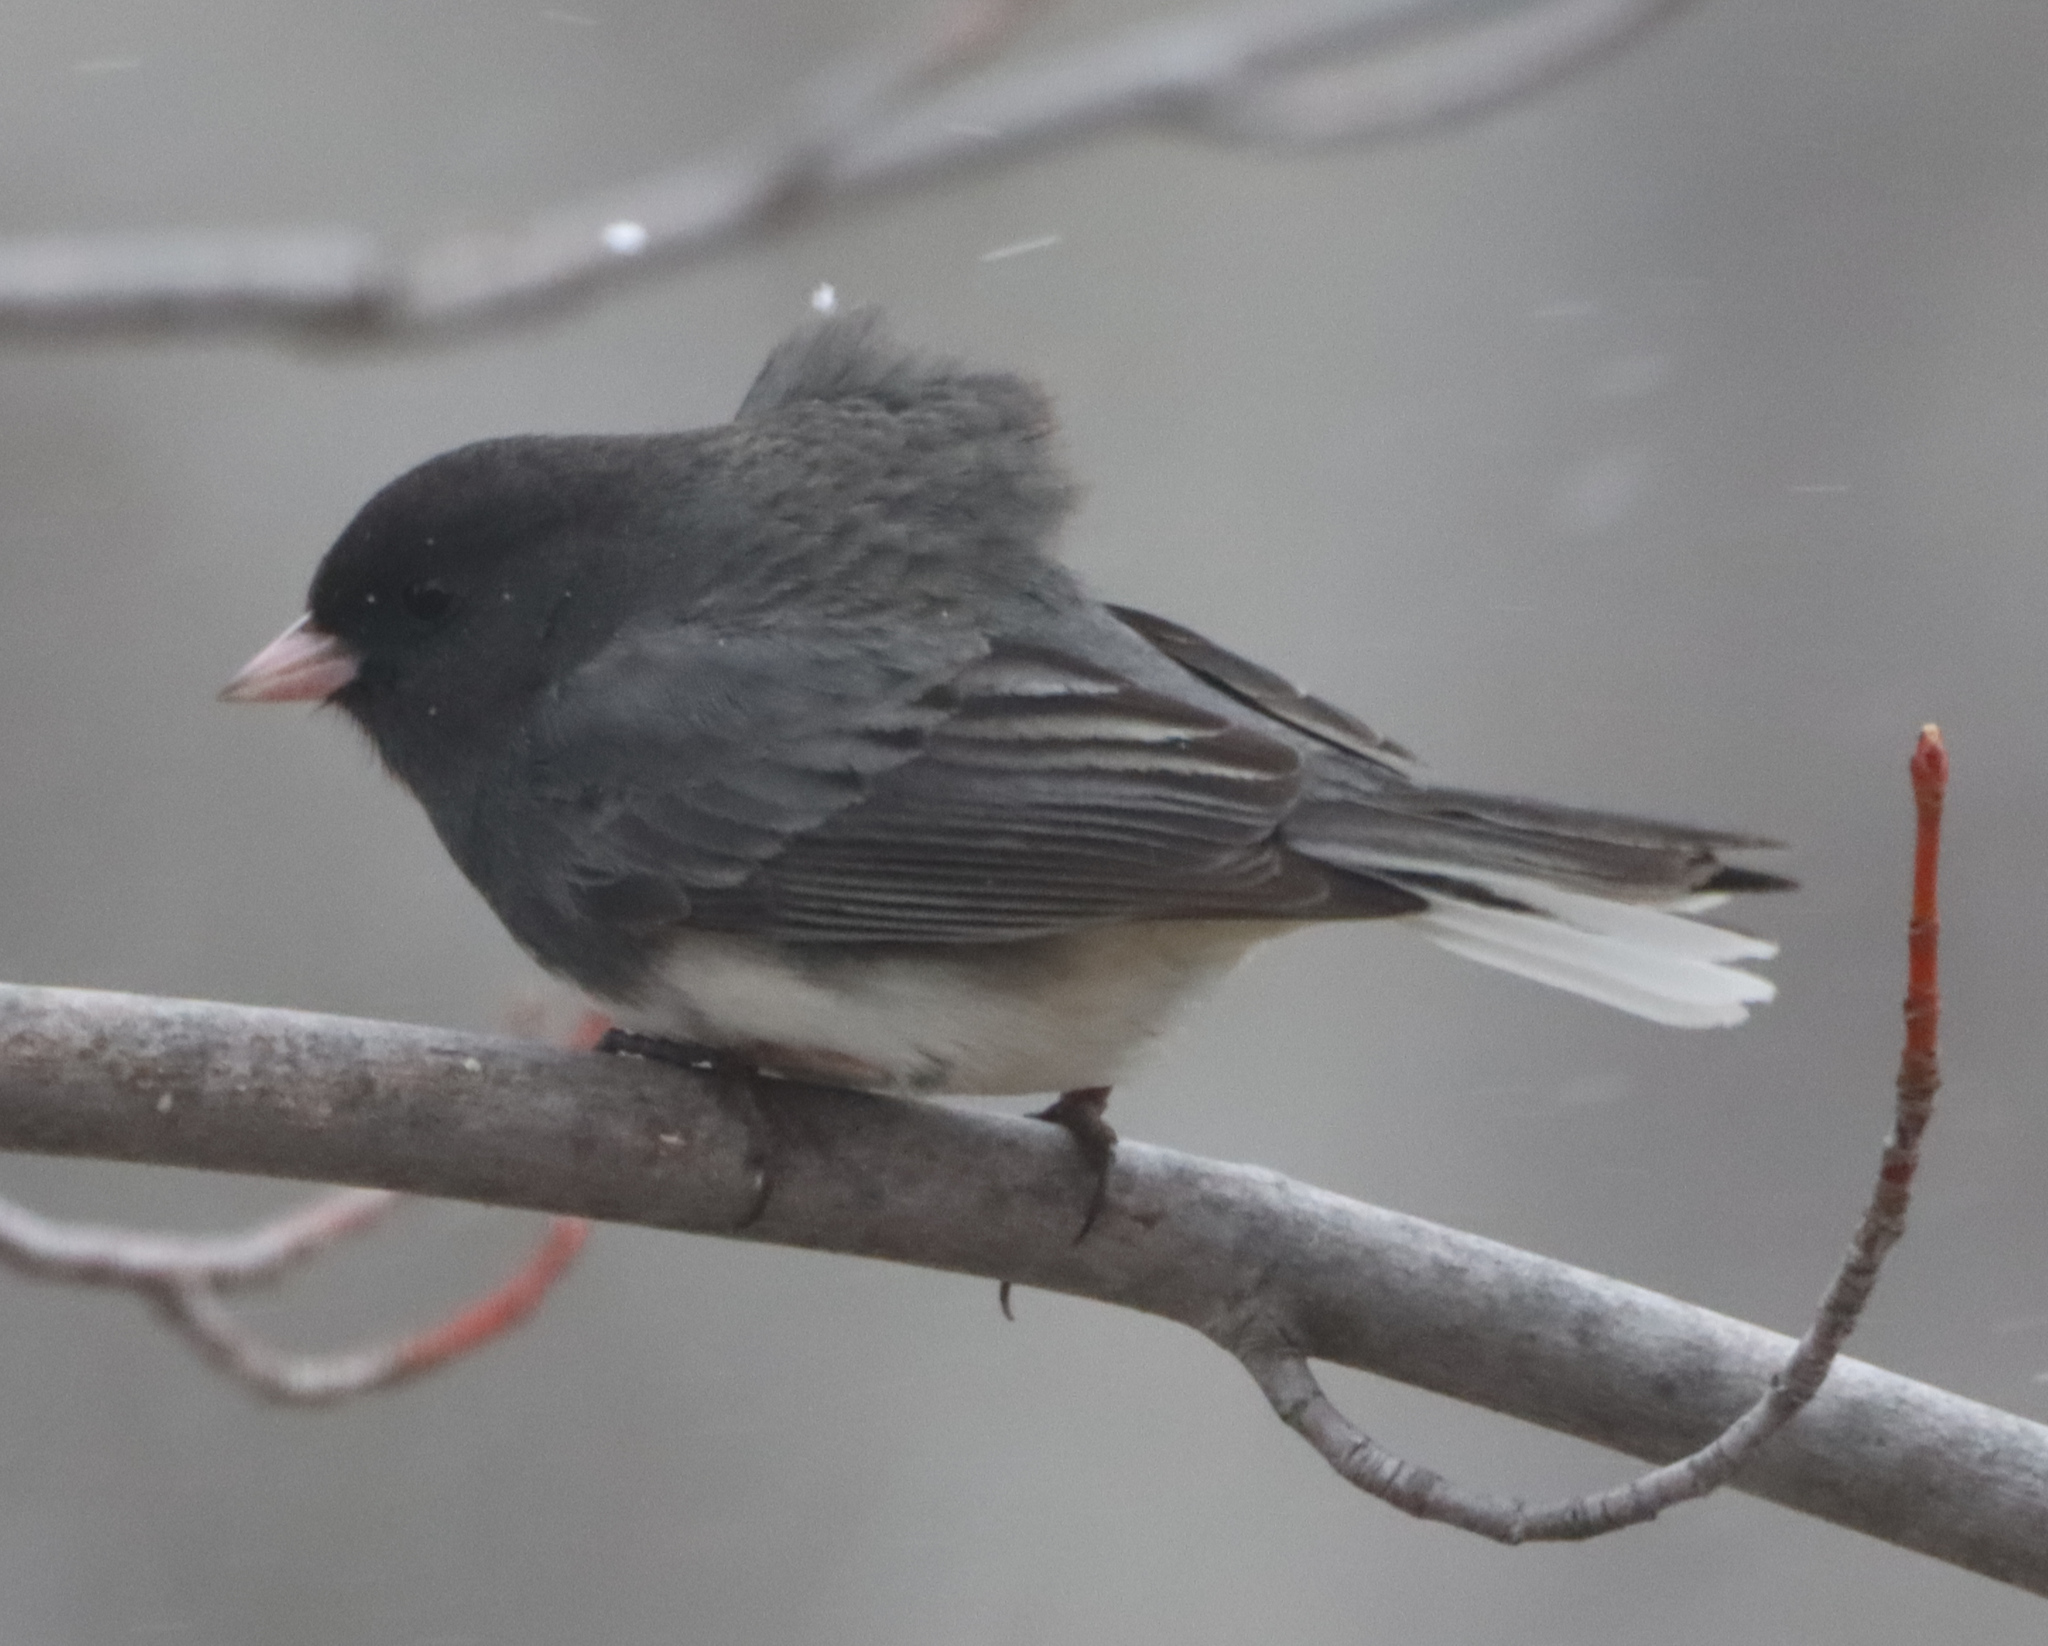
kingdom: Animalia
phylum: Chordata
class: Aves
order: Passeriformes
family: Passerellidae
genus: Junco
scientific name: Junco hyemalis
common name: Dark-eyed junco
